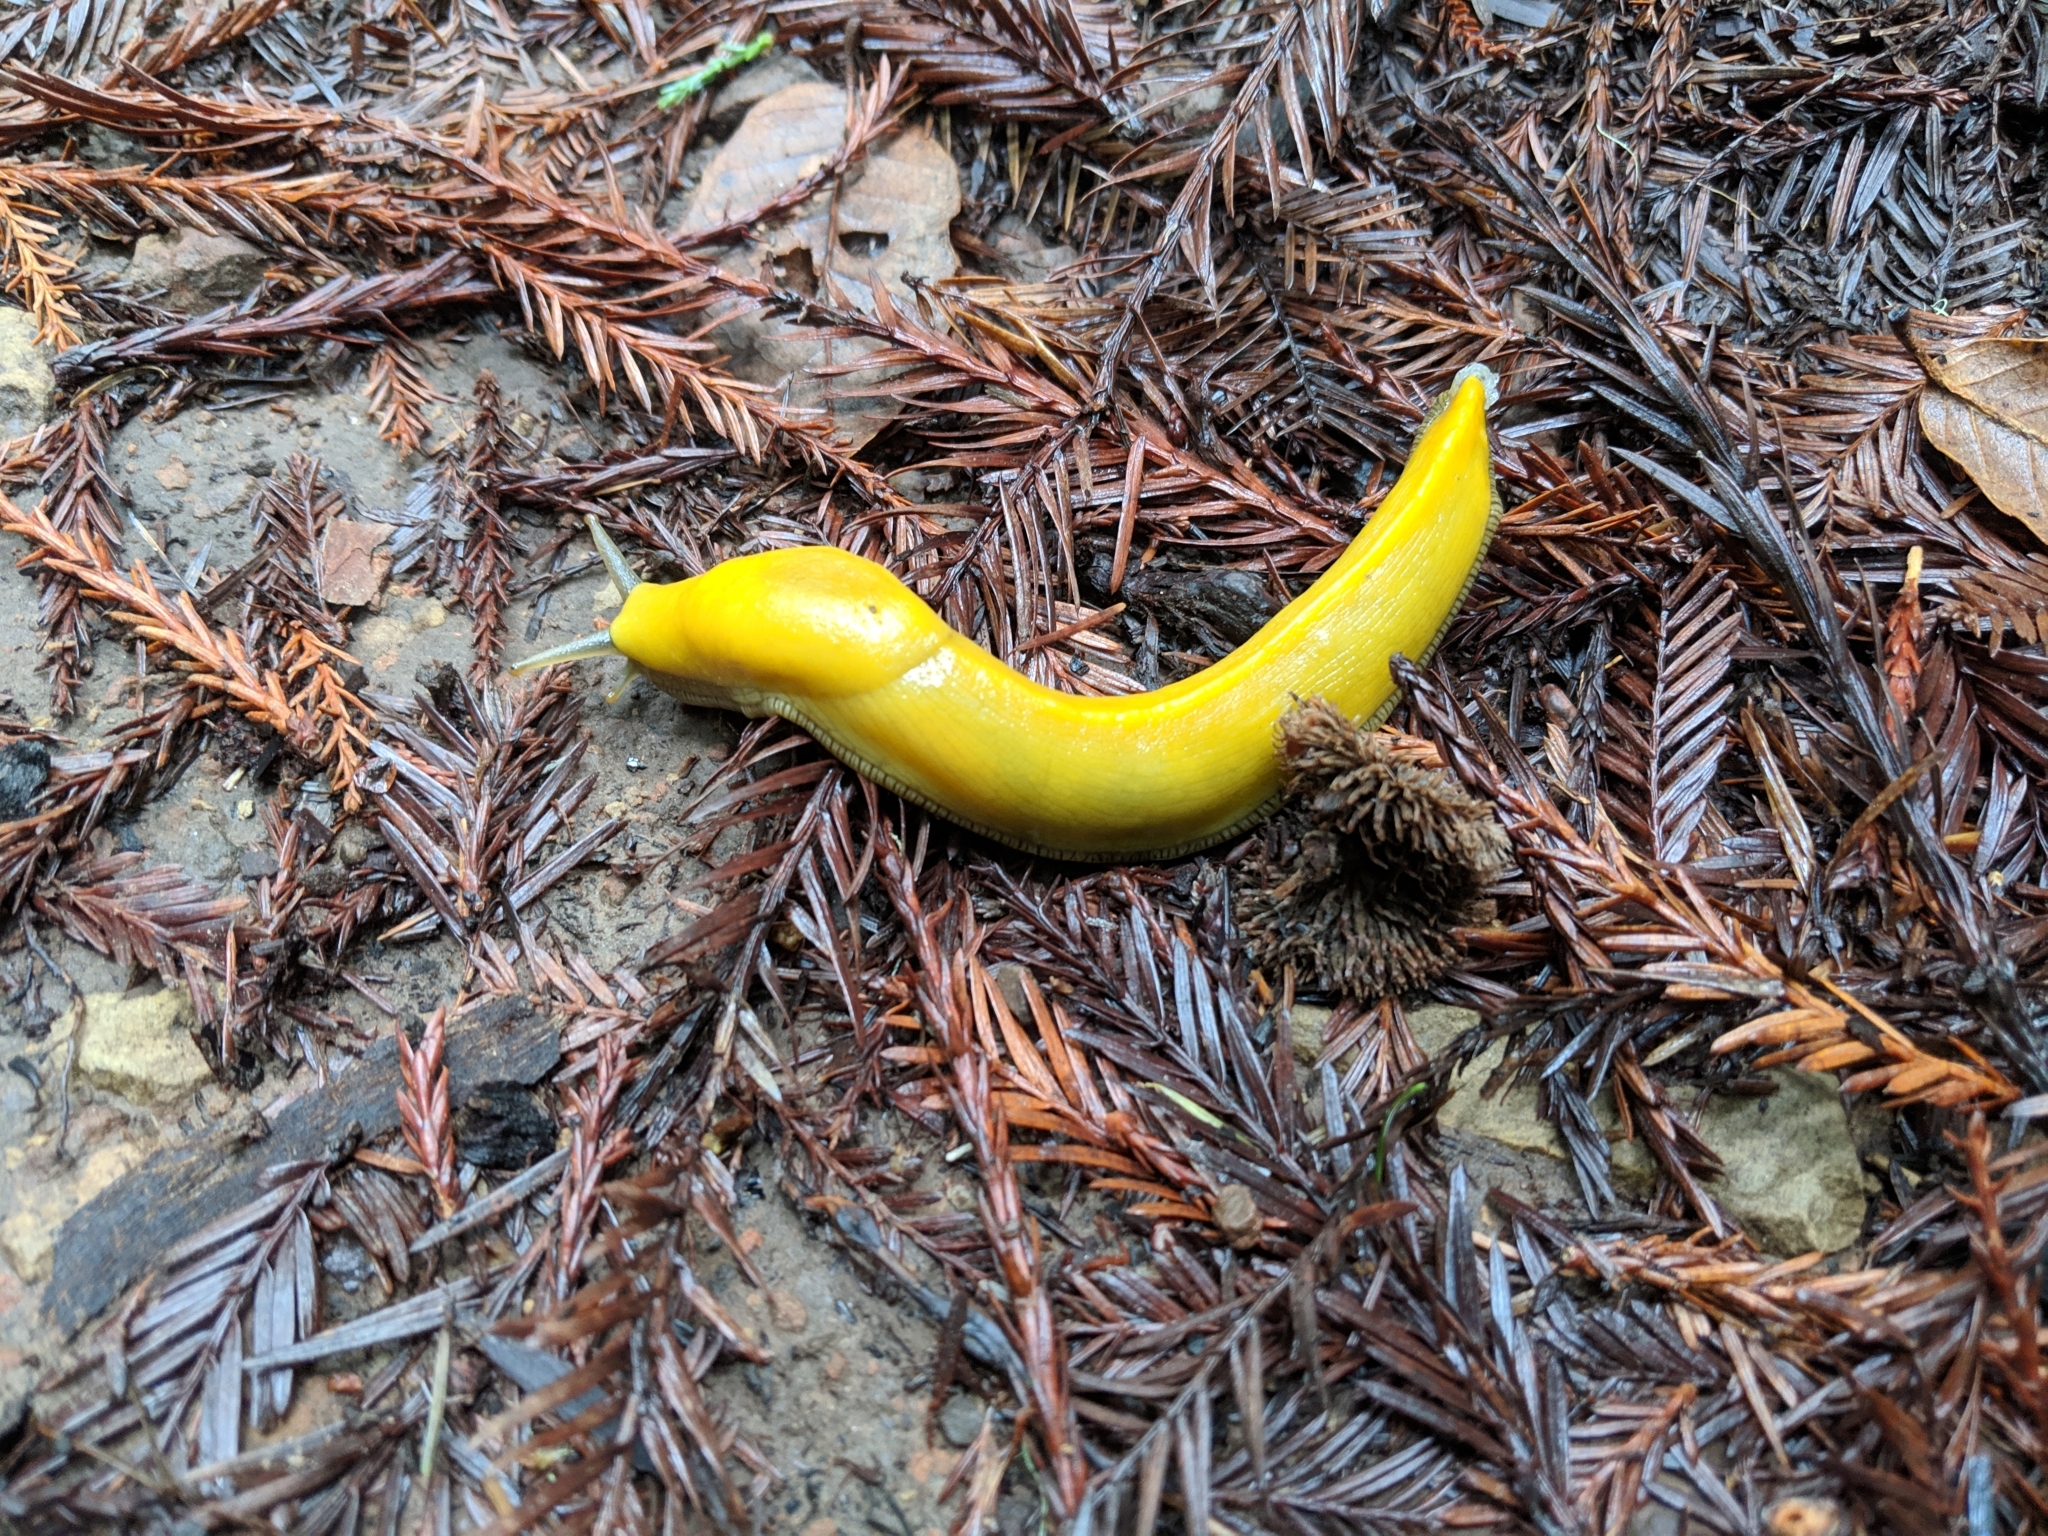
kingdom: Animalia
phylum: Mollusca
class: Gastropoda
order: Stylommatophora
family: Ariolimacidae
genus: Ariolimax
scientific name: Ariolimax californicus
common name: California banana slug
